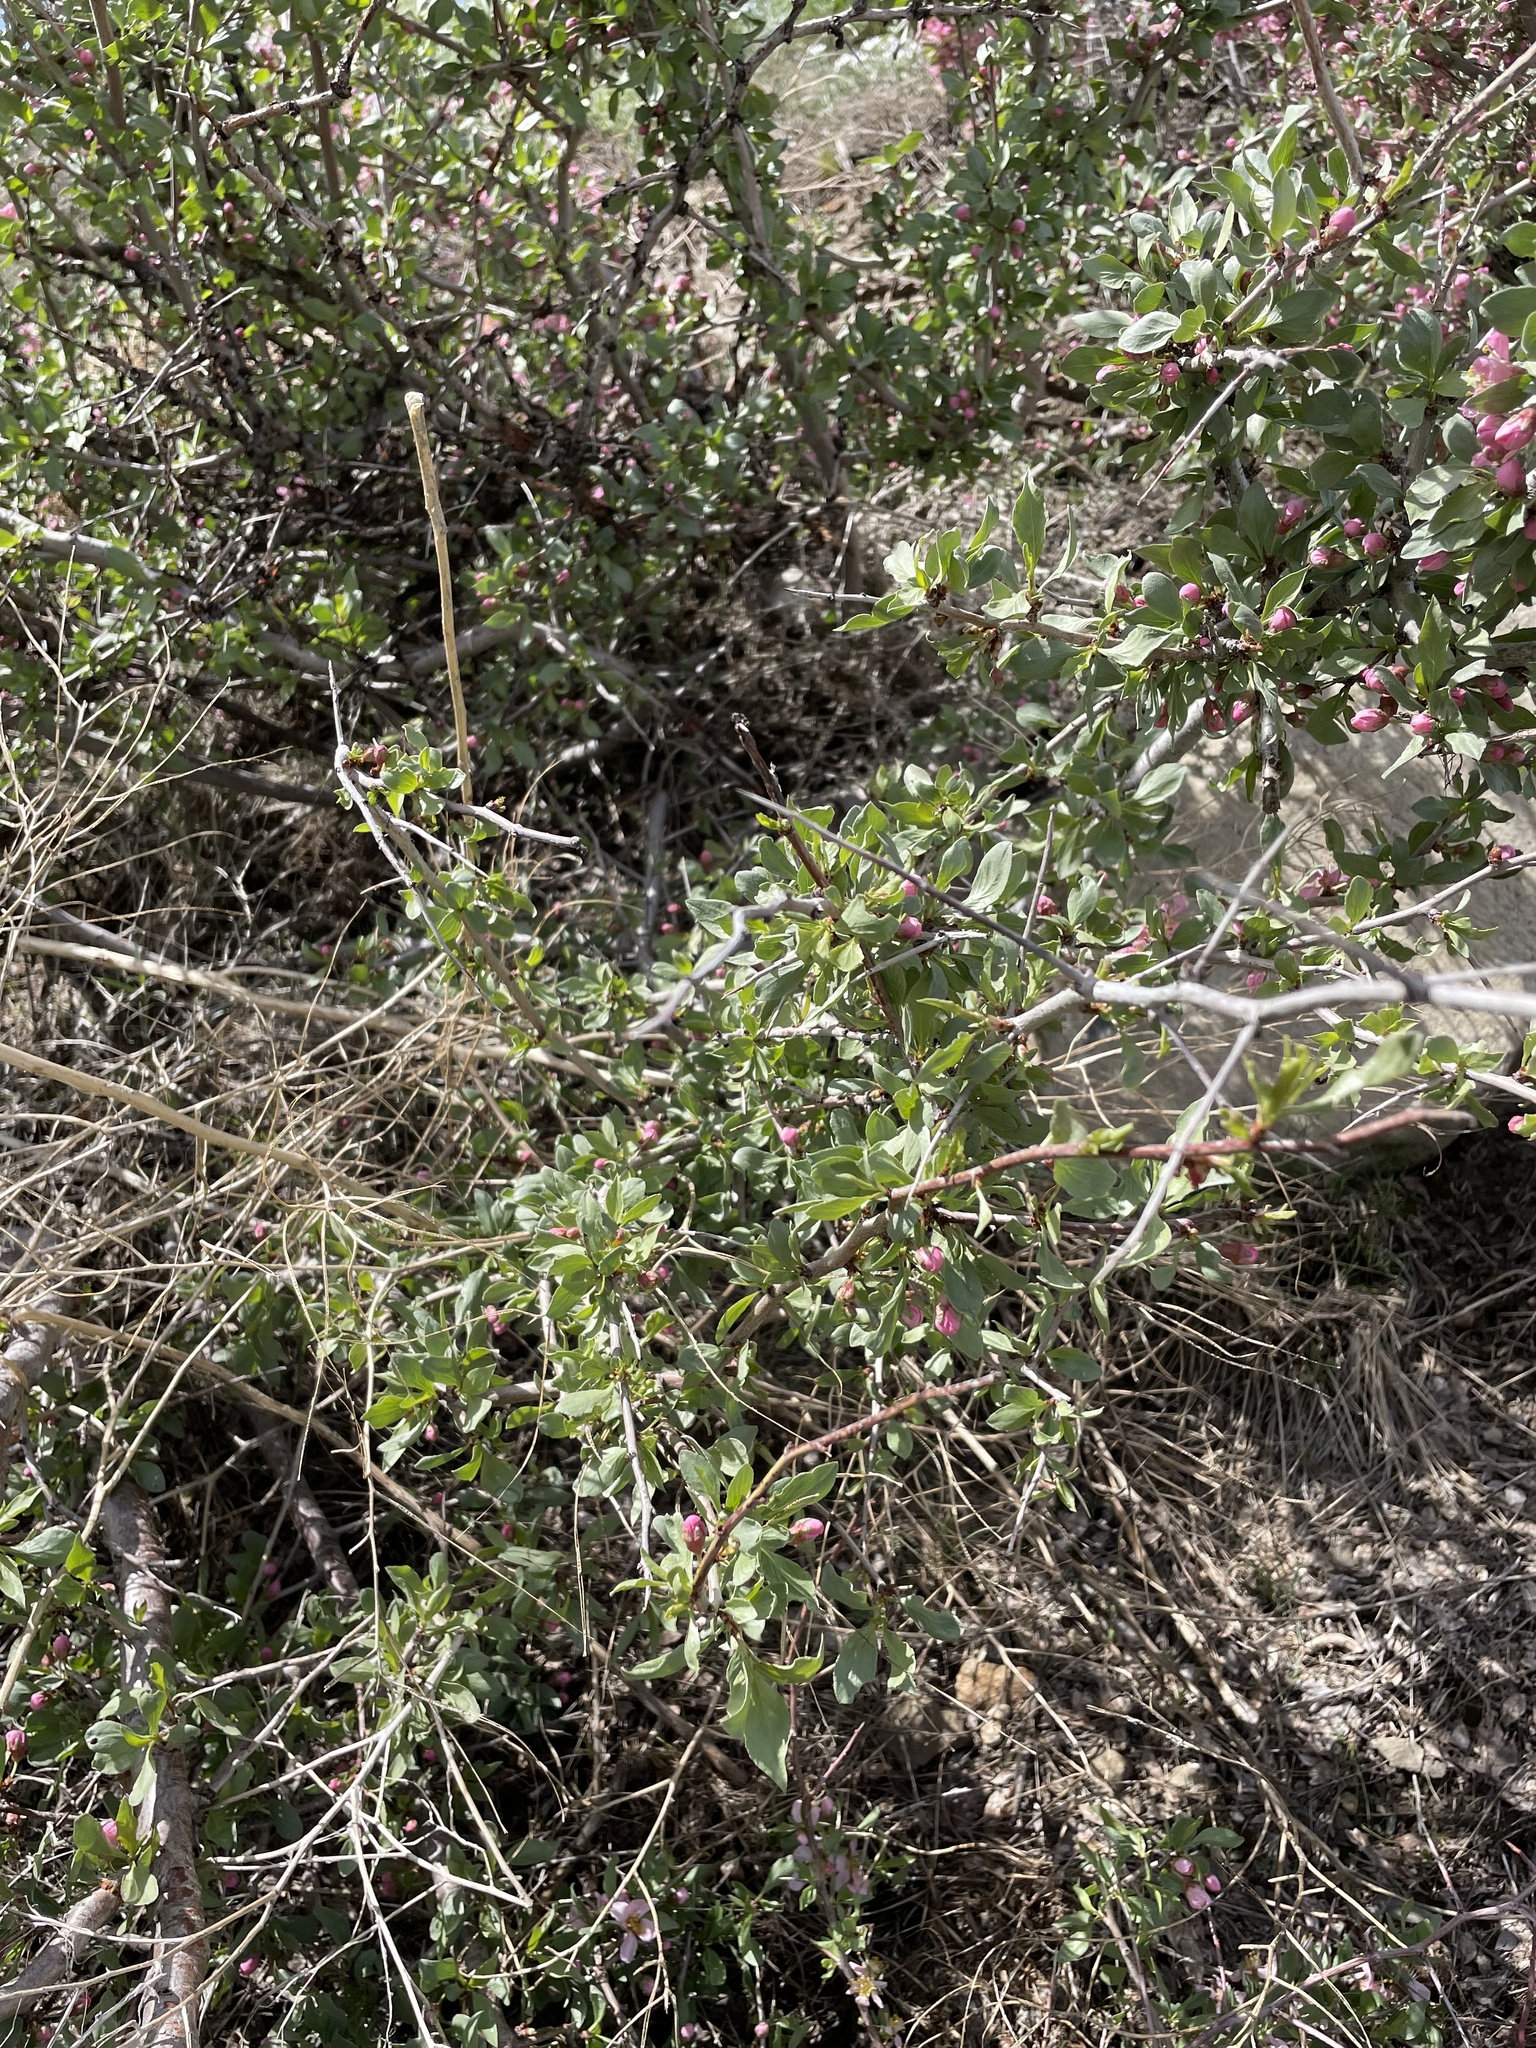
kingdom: Plantae
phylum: Tracheophyta
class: Magnoliopsida
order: Rosales
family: Rosaceae
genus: Prunus
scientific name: Prunus andersonii
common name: Desert peach
